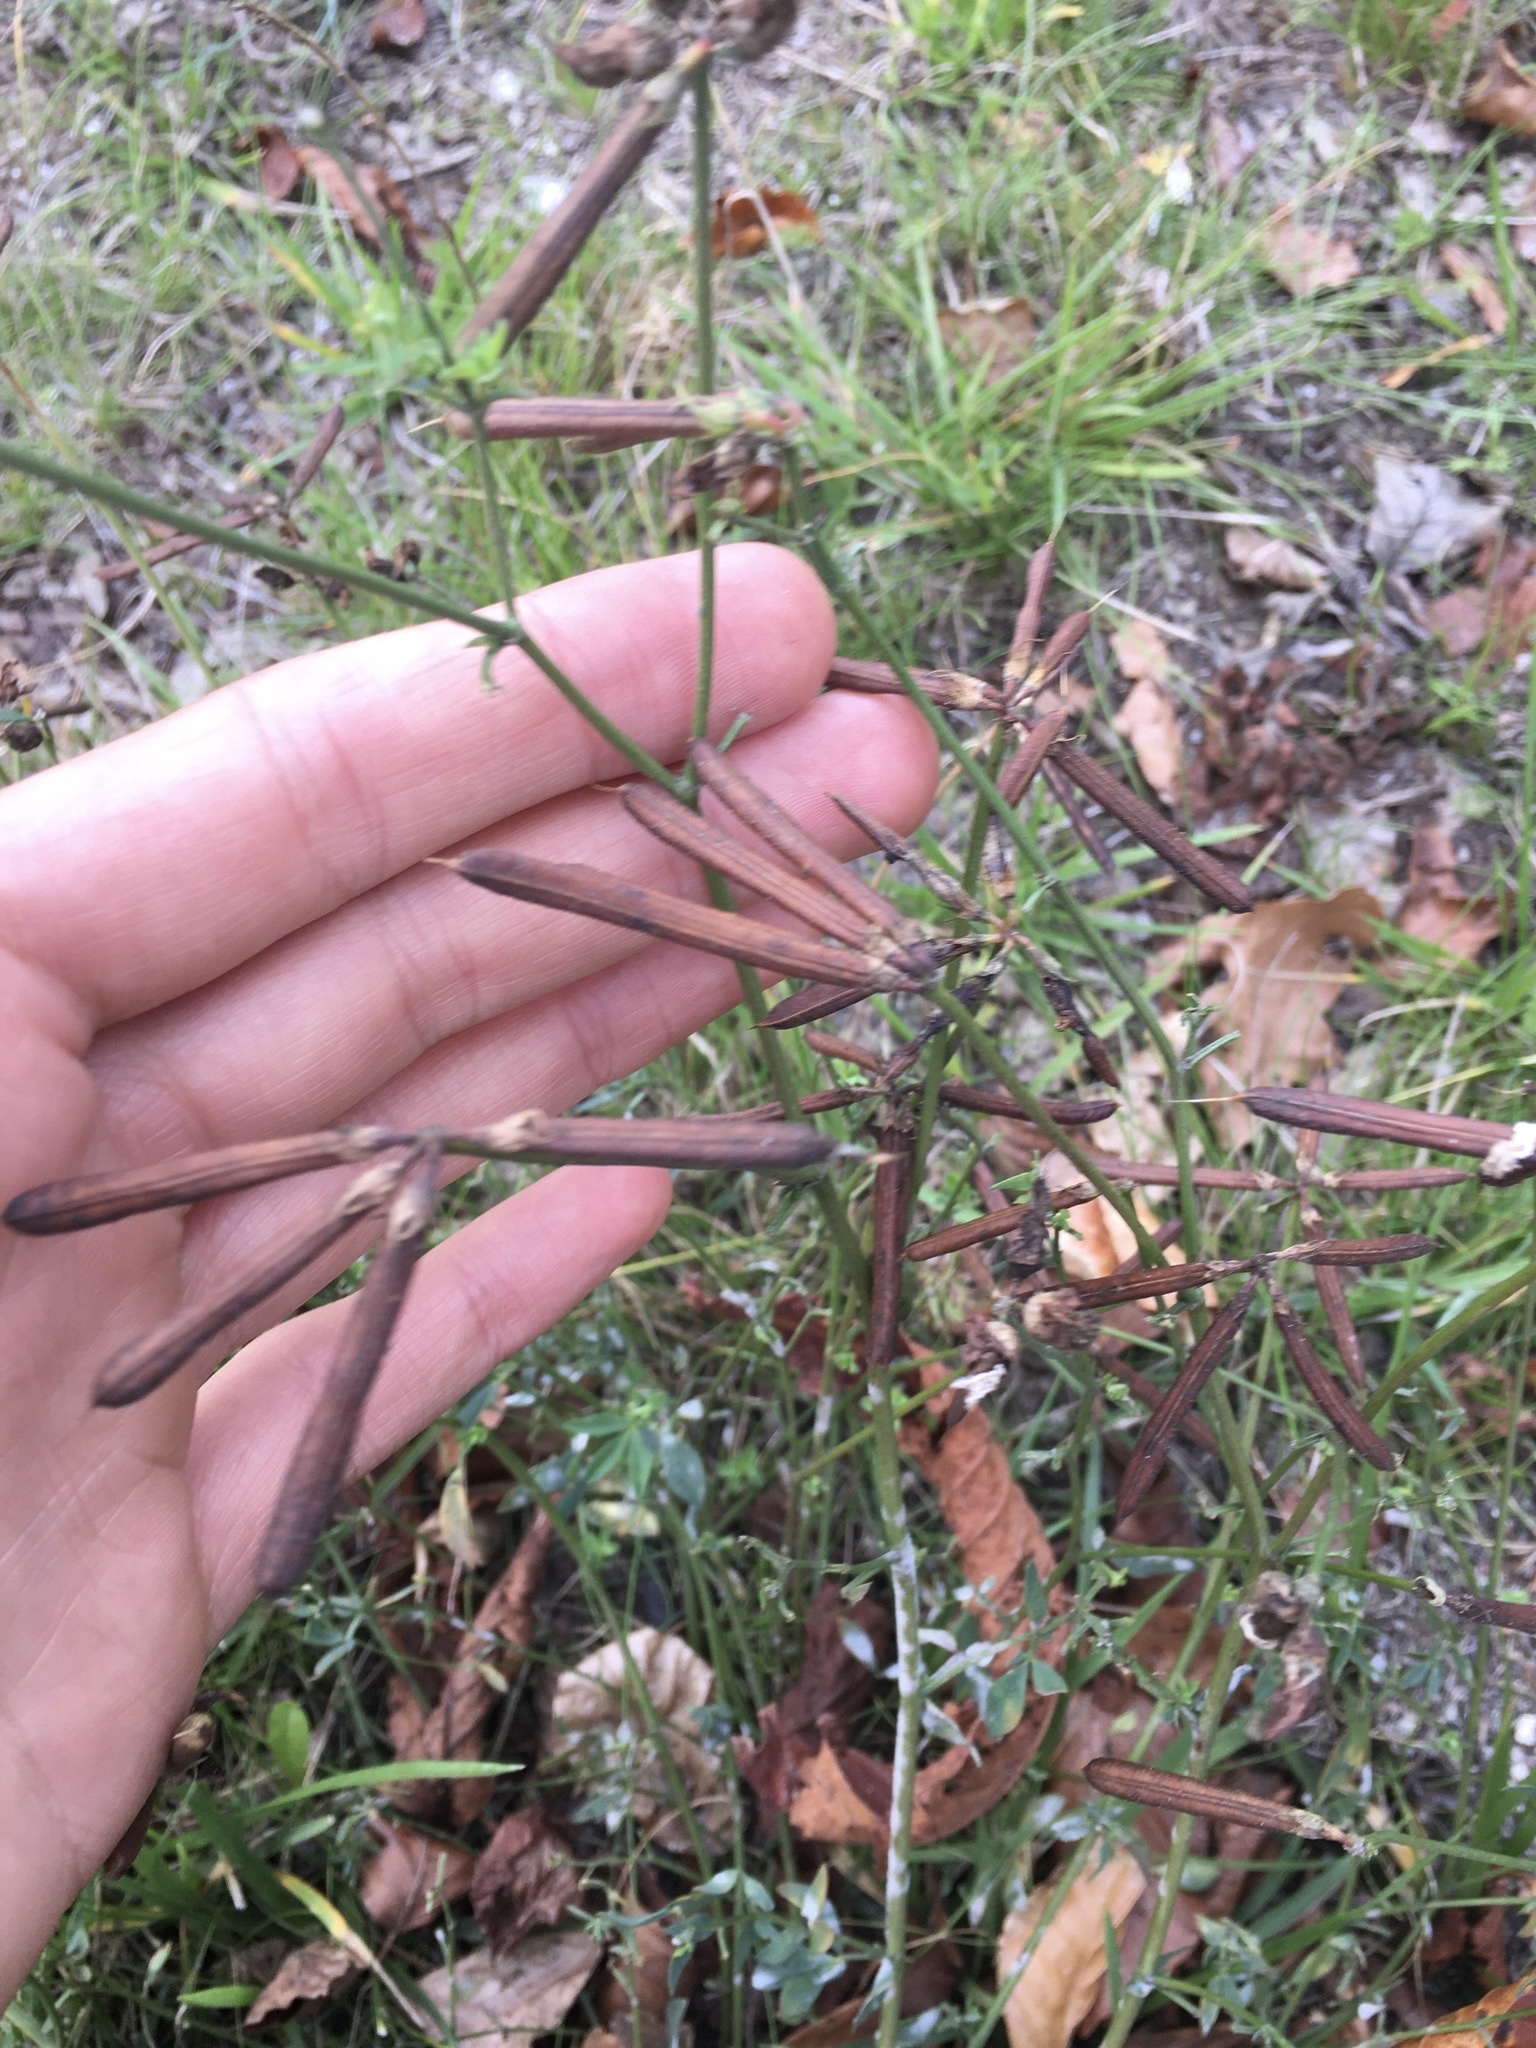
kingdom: Plantae
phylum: Tracheophyta
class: Magnoliopsida
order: Fabales
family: Fabaceae
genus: Lotus
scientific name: Lotus corniculatus
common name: Common bird's-foot-trefoil
